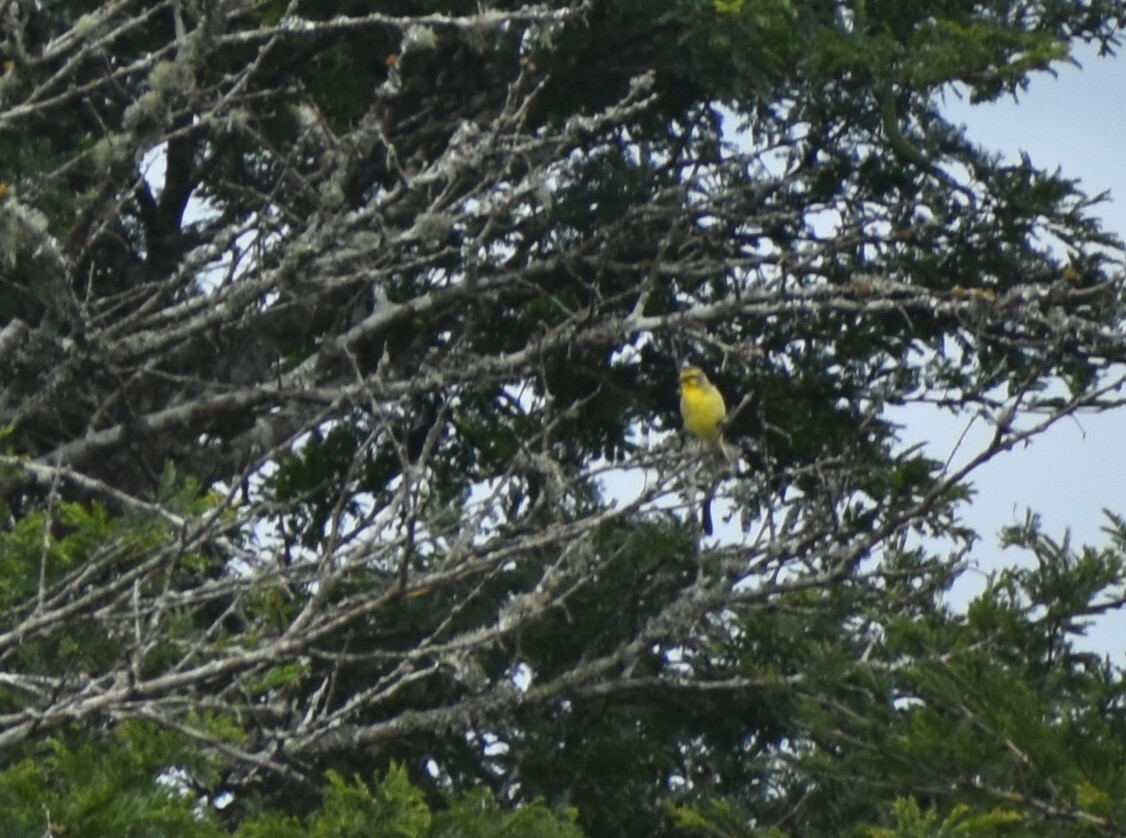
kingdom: Animalia
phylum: Chordata
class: Aves
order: Passeriformes
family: Fringillidae
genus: Crithagra
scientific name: Crithagra mozambica
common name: Yellow-fronted canary
